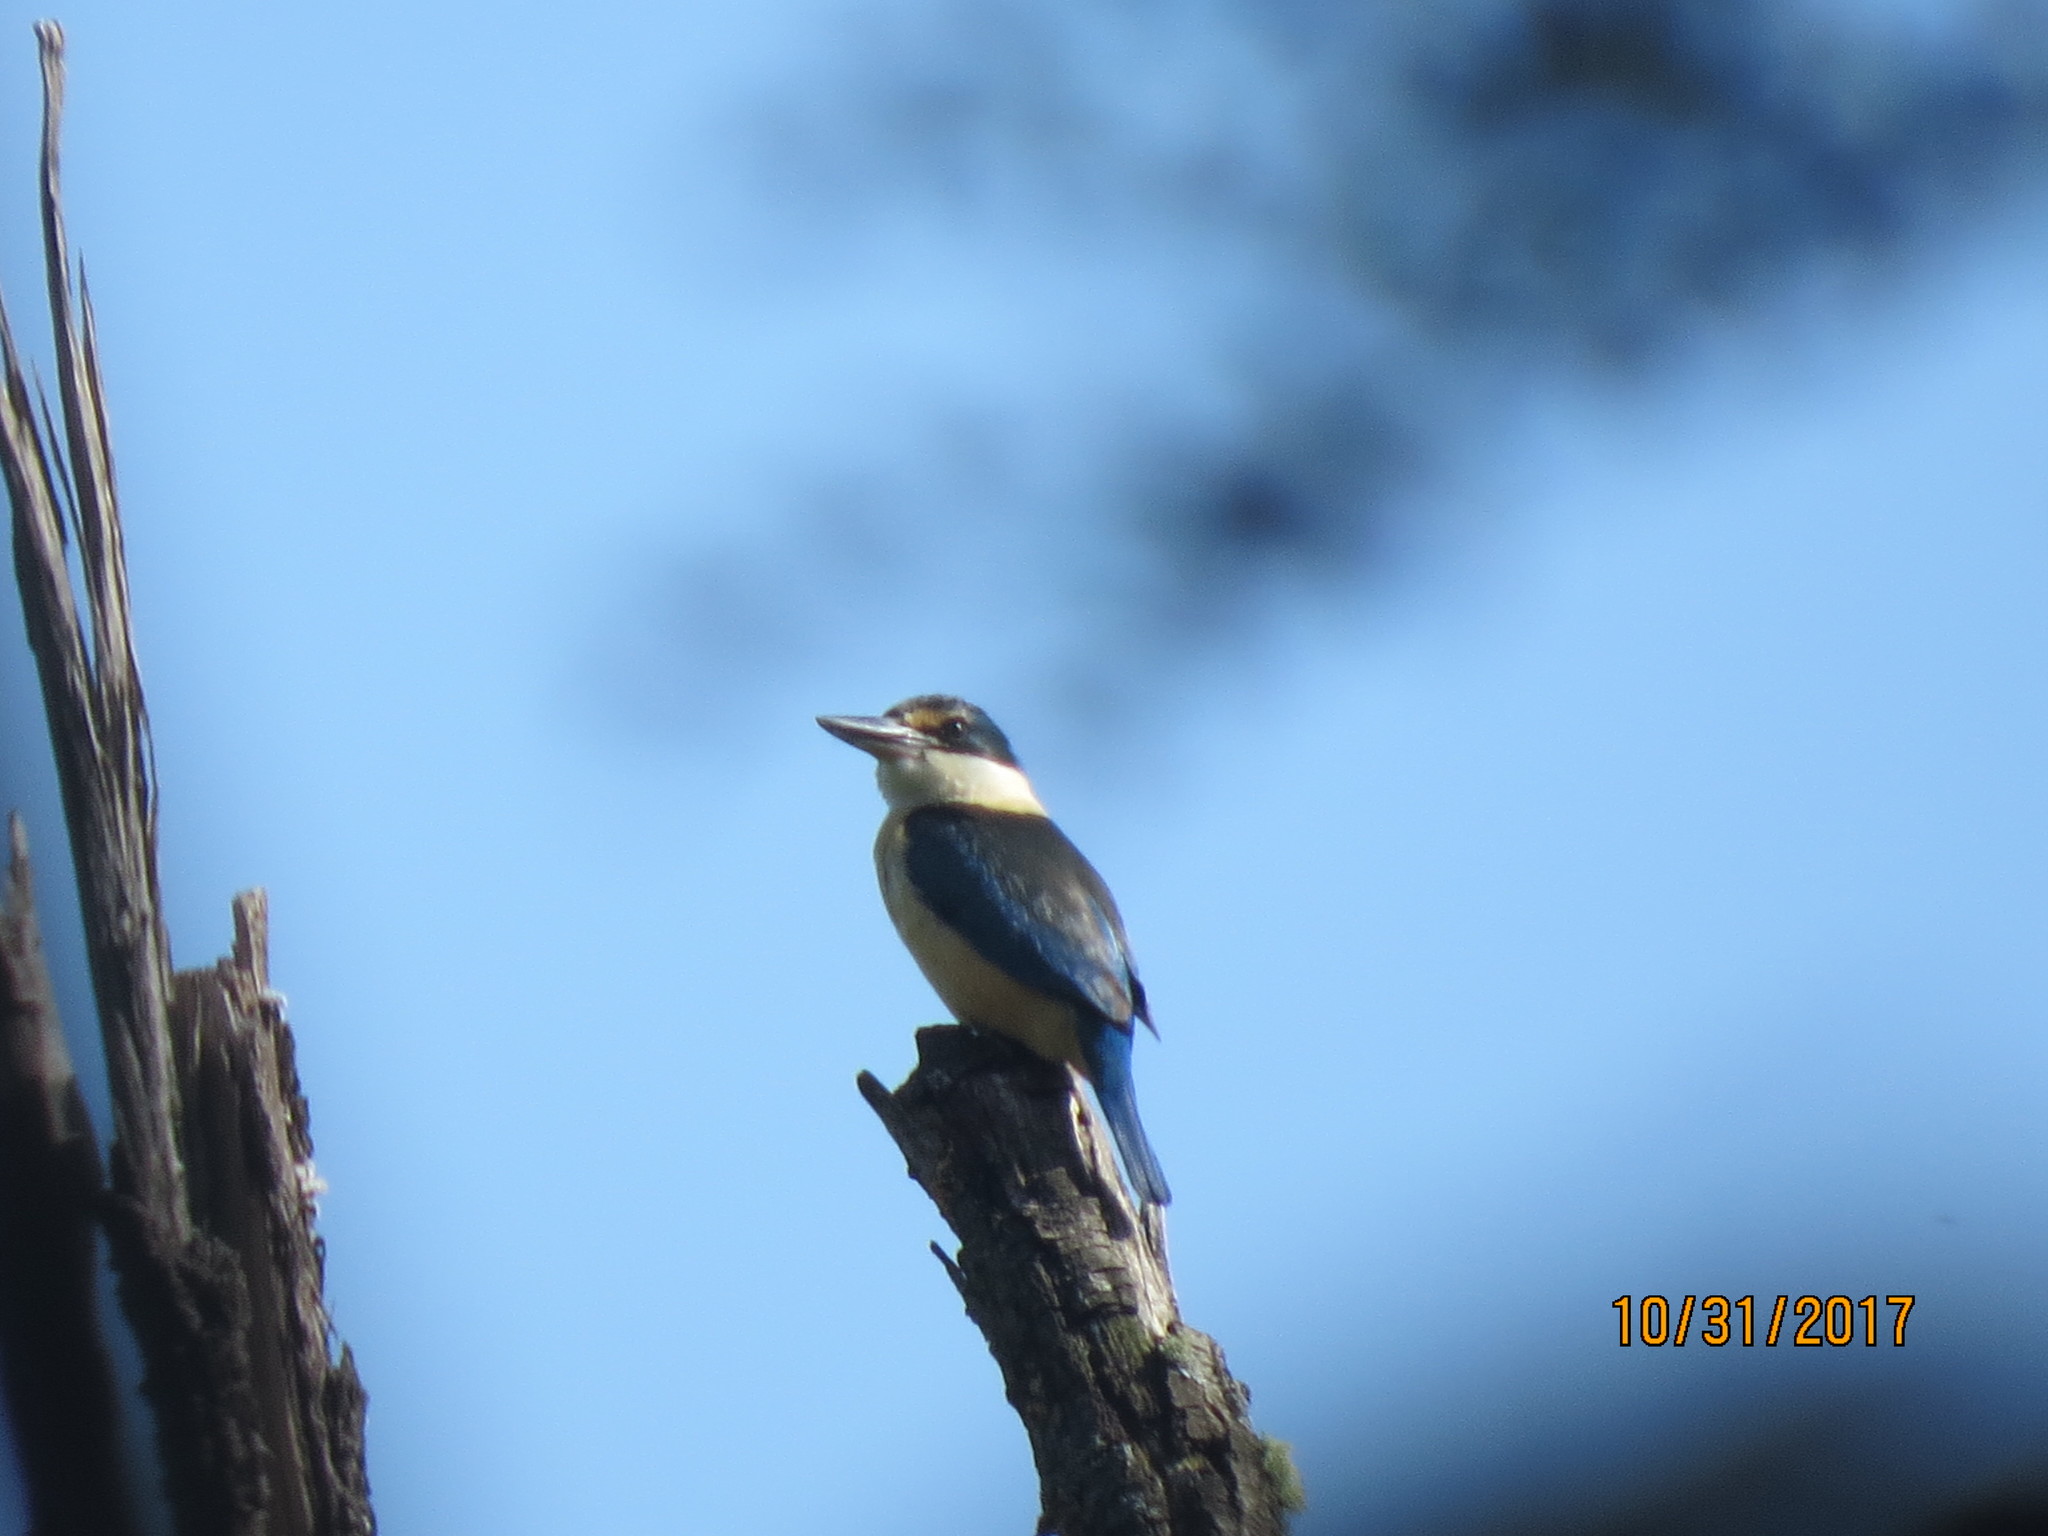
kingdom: Animalia
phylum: Chordata
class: Aves
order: Coraciiformes
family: Alcedinidae
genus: Todiramphus
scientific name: Todiramphus sanctus
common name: Sacred kingfisher
